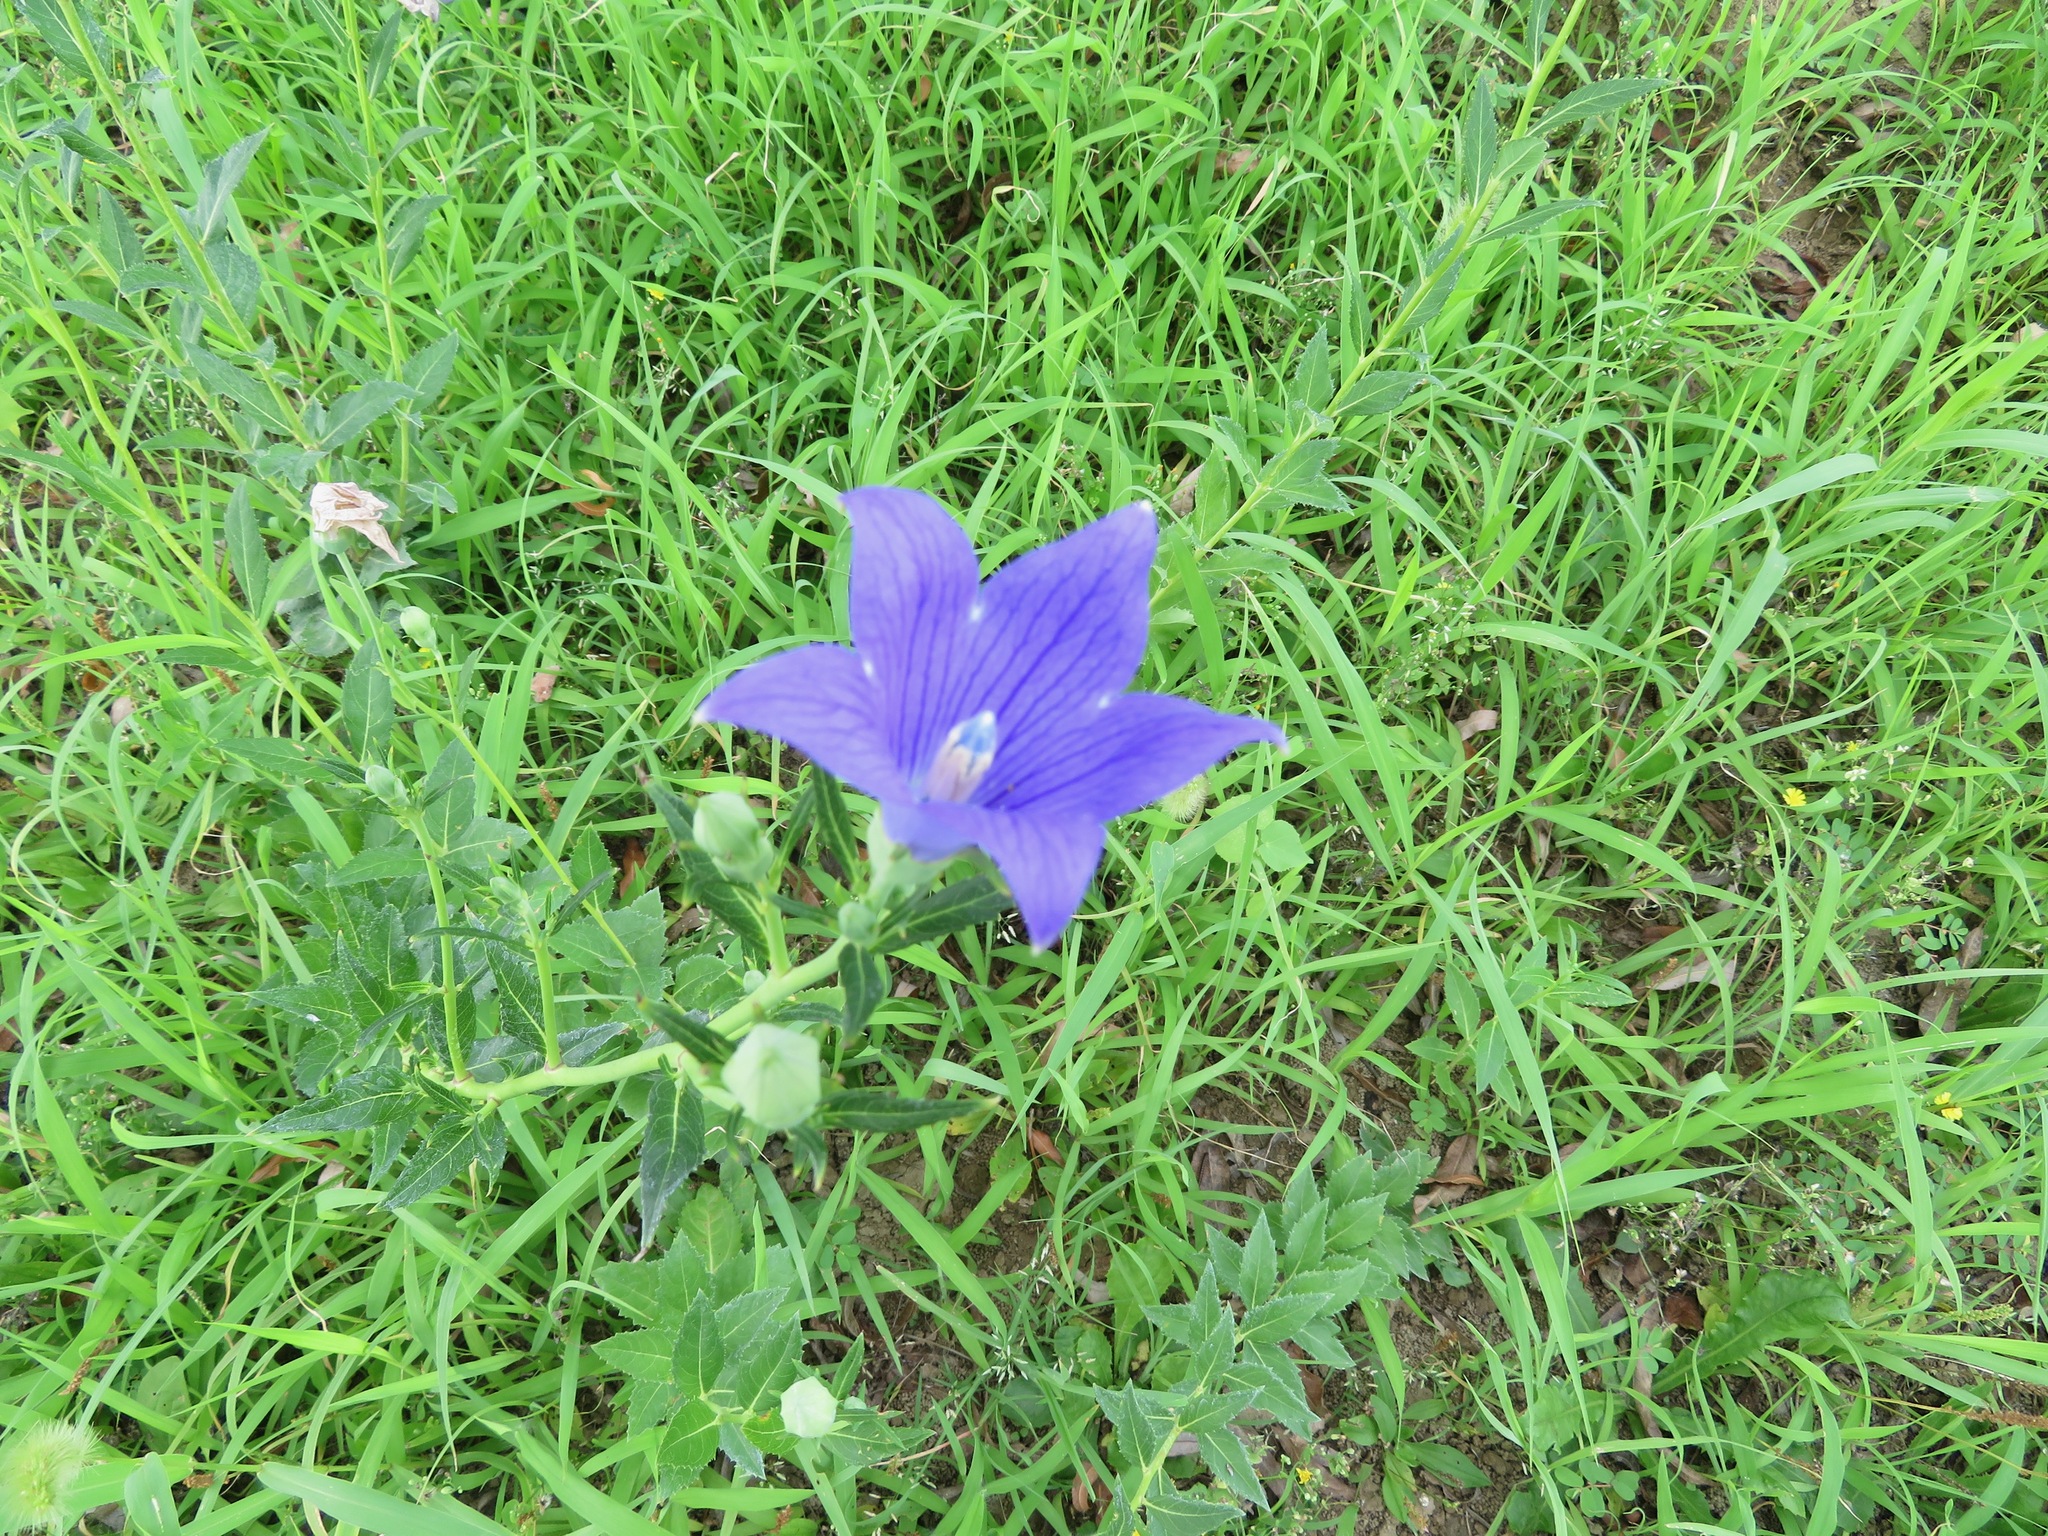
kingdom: Plantae
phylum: Tracheophyta
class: Magnoliopsida
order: Asterales
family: Campanulaceae
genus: Platycodon
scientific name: Platycodon grandiflorus
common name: Balloon-flower
